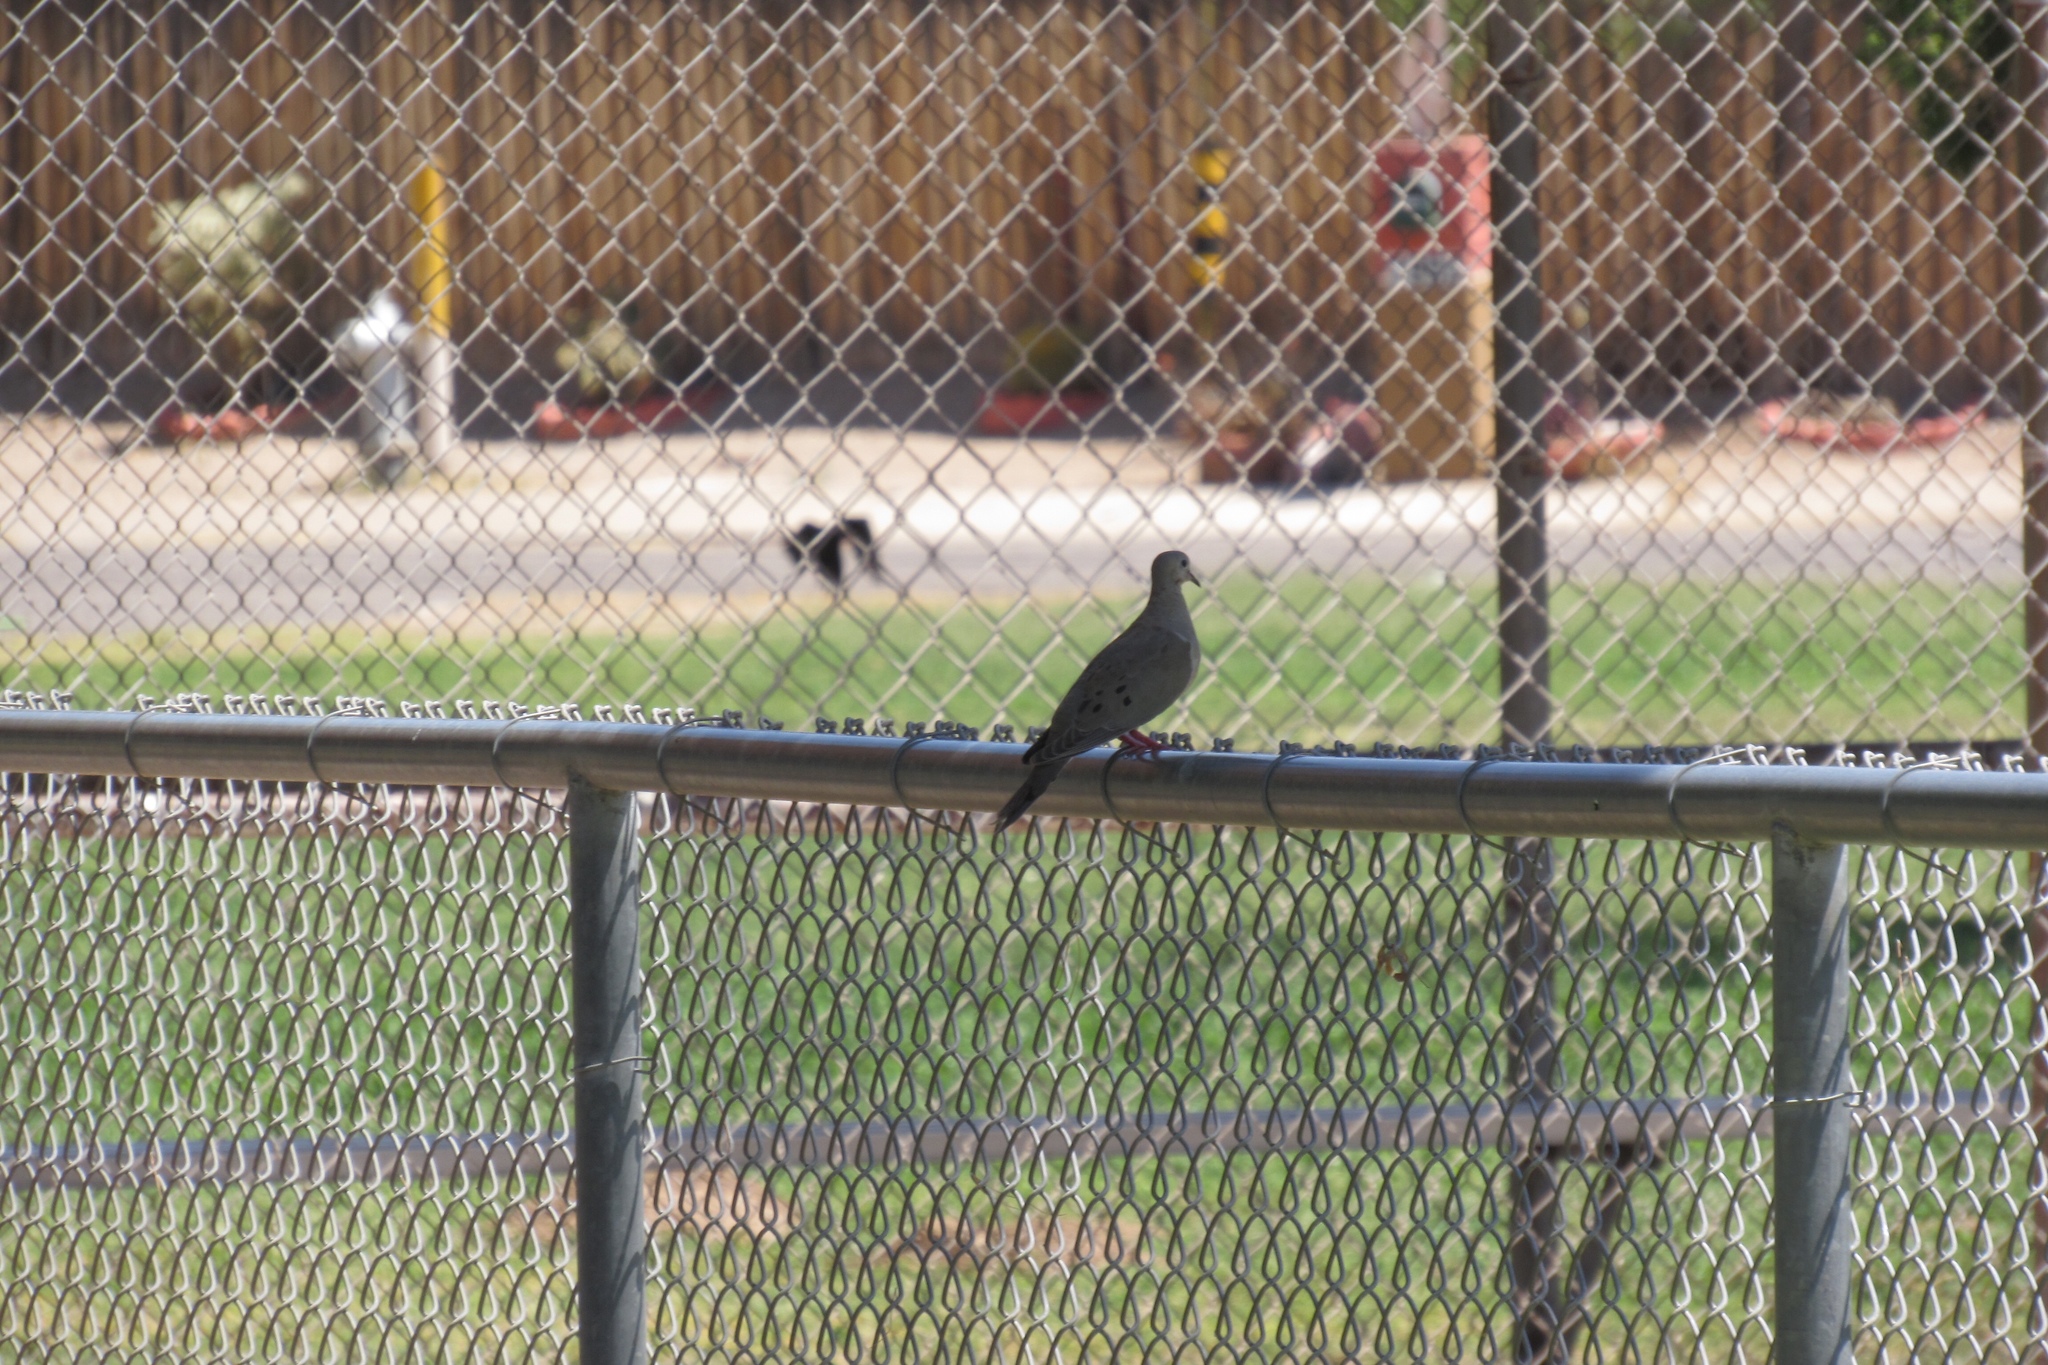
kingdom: Animalia
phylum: Chordata
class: Aves
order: Columbiformes
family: Columbidae
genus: Zenaida
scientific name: Zenaida macroura
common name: Mourning dove
